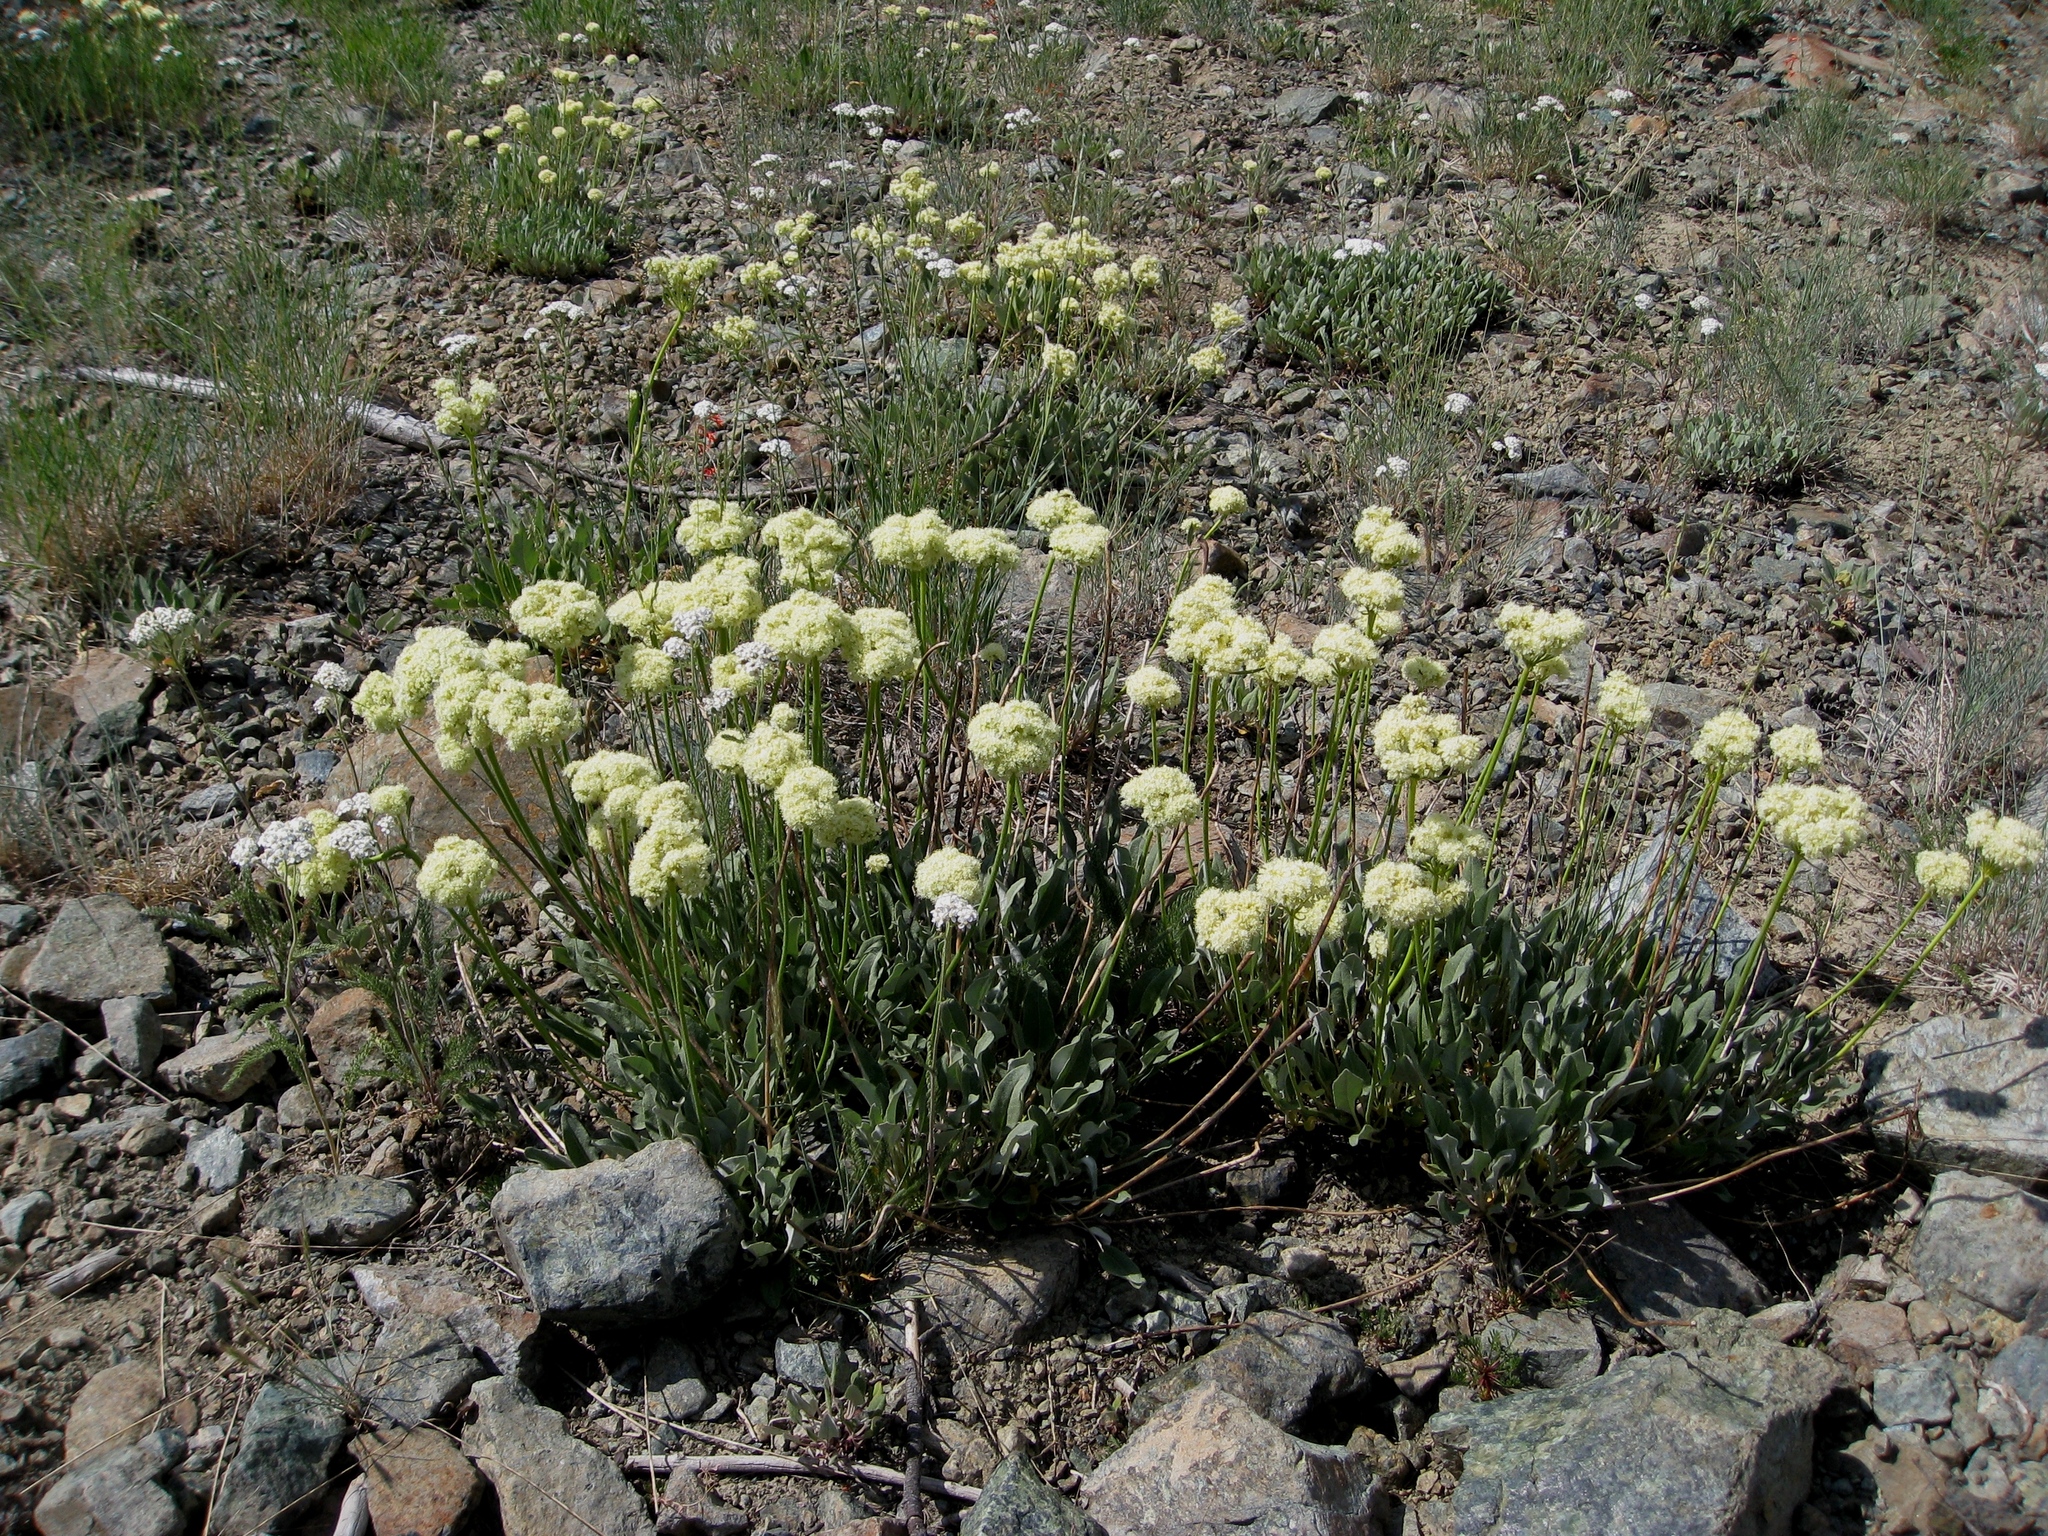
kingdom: Plantae
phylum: Tracheophyta
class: Magnoliopsida
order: Caryophyllales
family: Polygonaceae
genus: Eriogonum
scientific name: Eriogonum compositum
